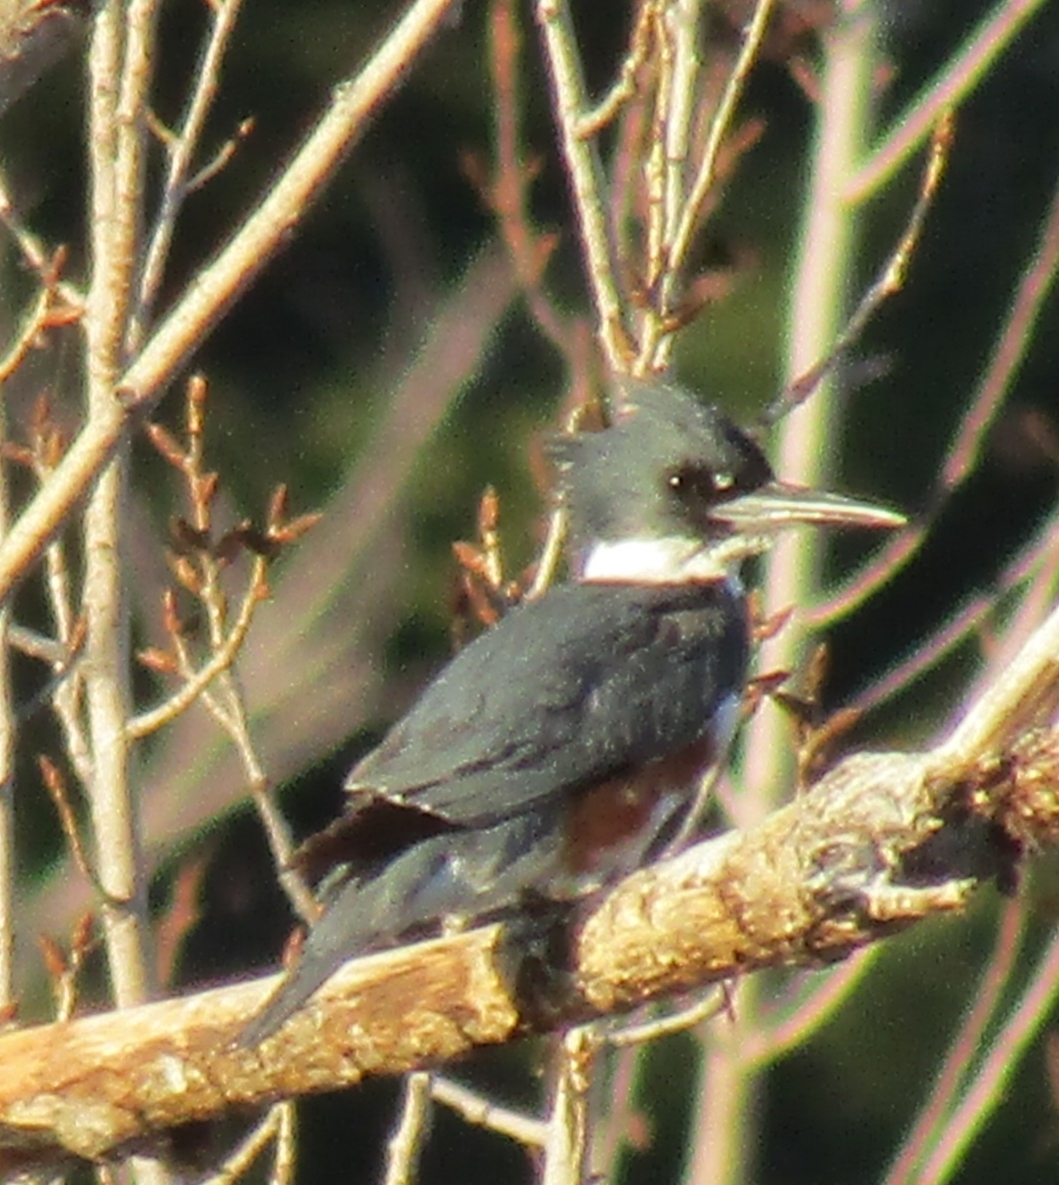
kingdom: Animalia
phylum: Chordata
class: Aves
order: Coraciiformes
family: Alcedinidae
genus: Megaceryle
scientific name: Megaceryle alcyon
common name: Belted kingfisher
